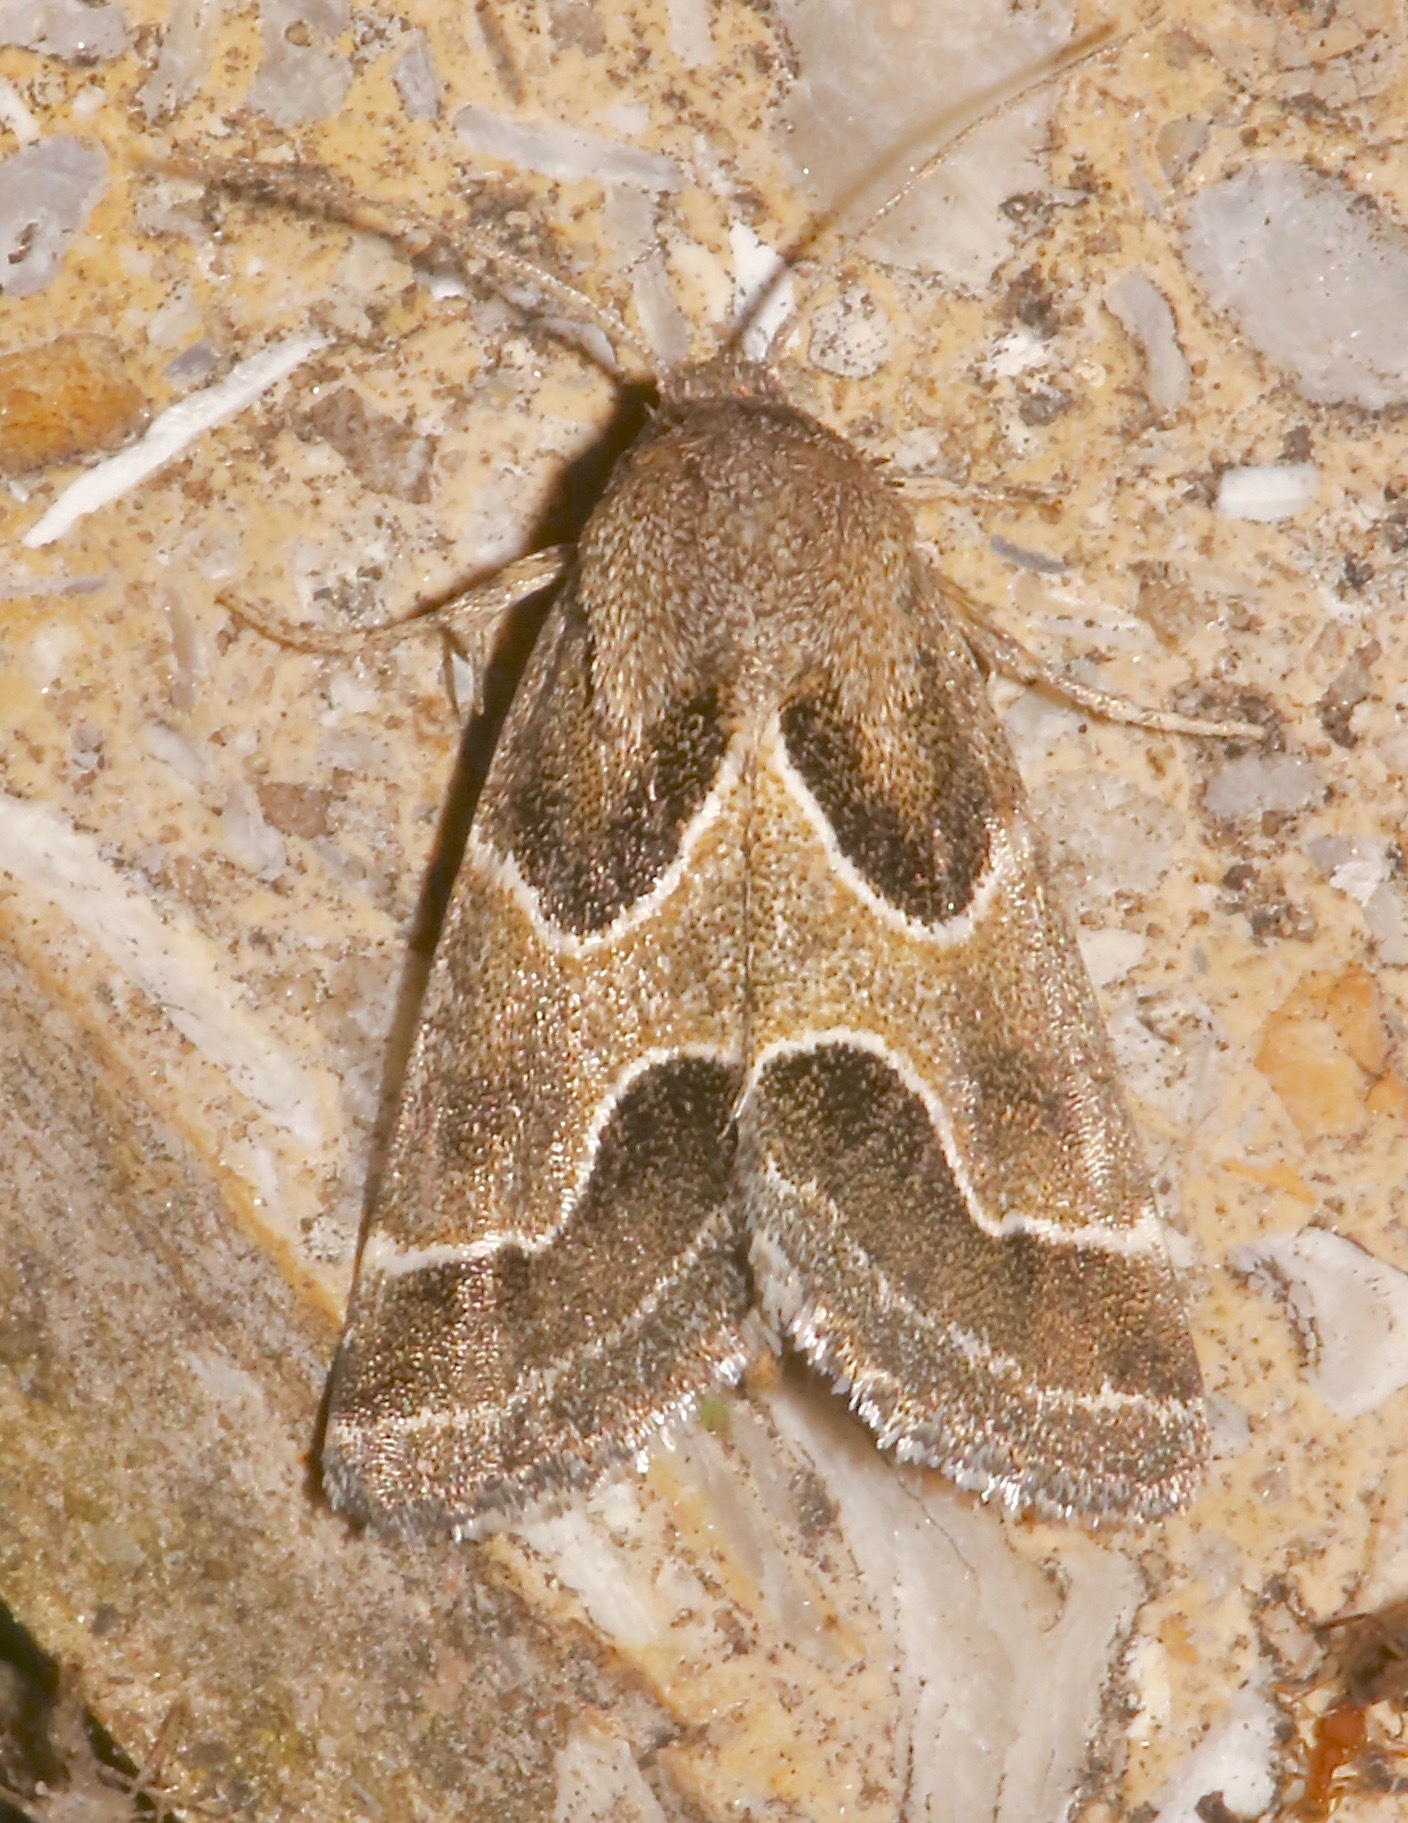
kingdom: Animalia
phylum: Arthropoda
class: Insecta
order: Lepidoptera
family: Noctuidae
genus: Schinia
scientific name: Schinia rivulosa
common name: Scarce meal-moth
